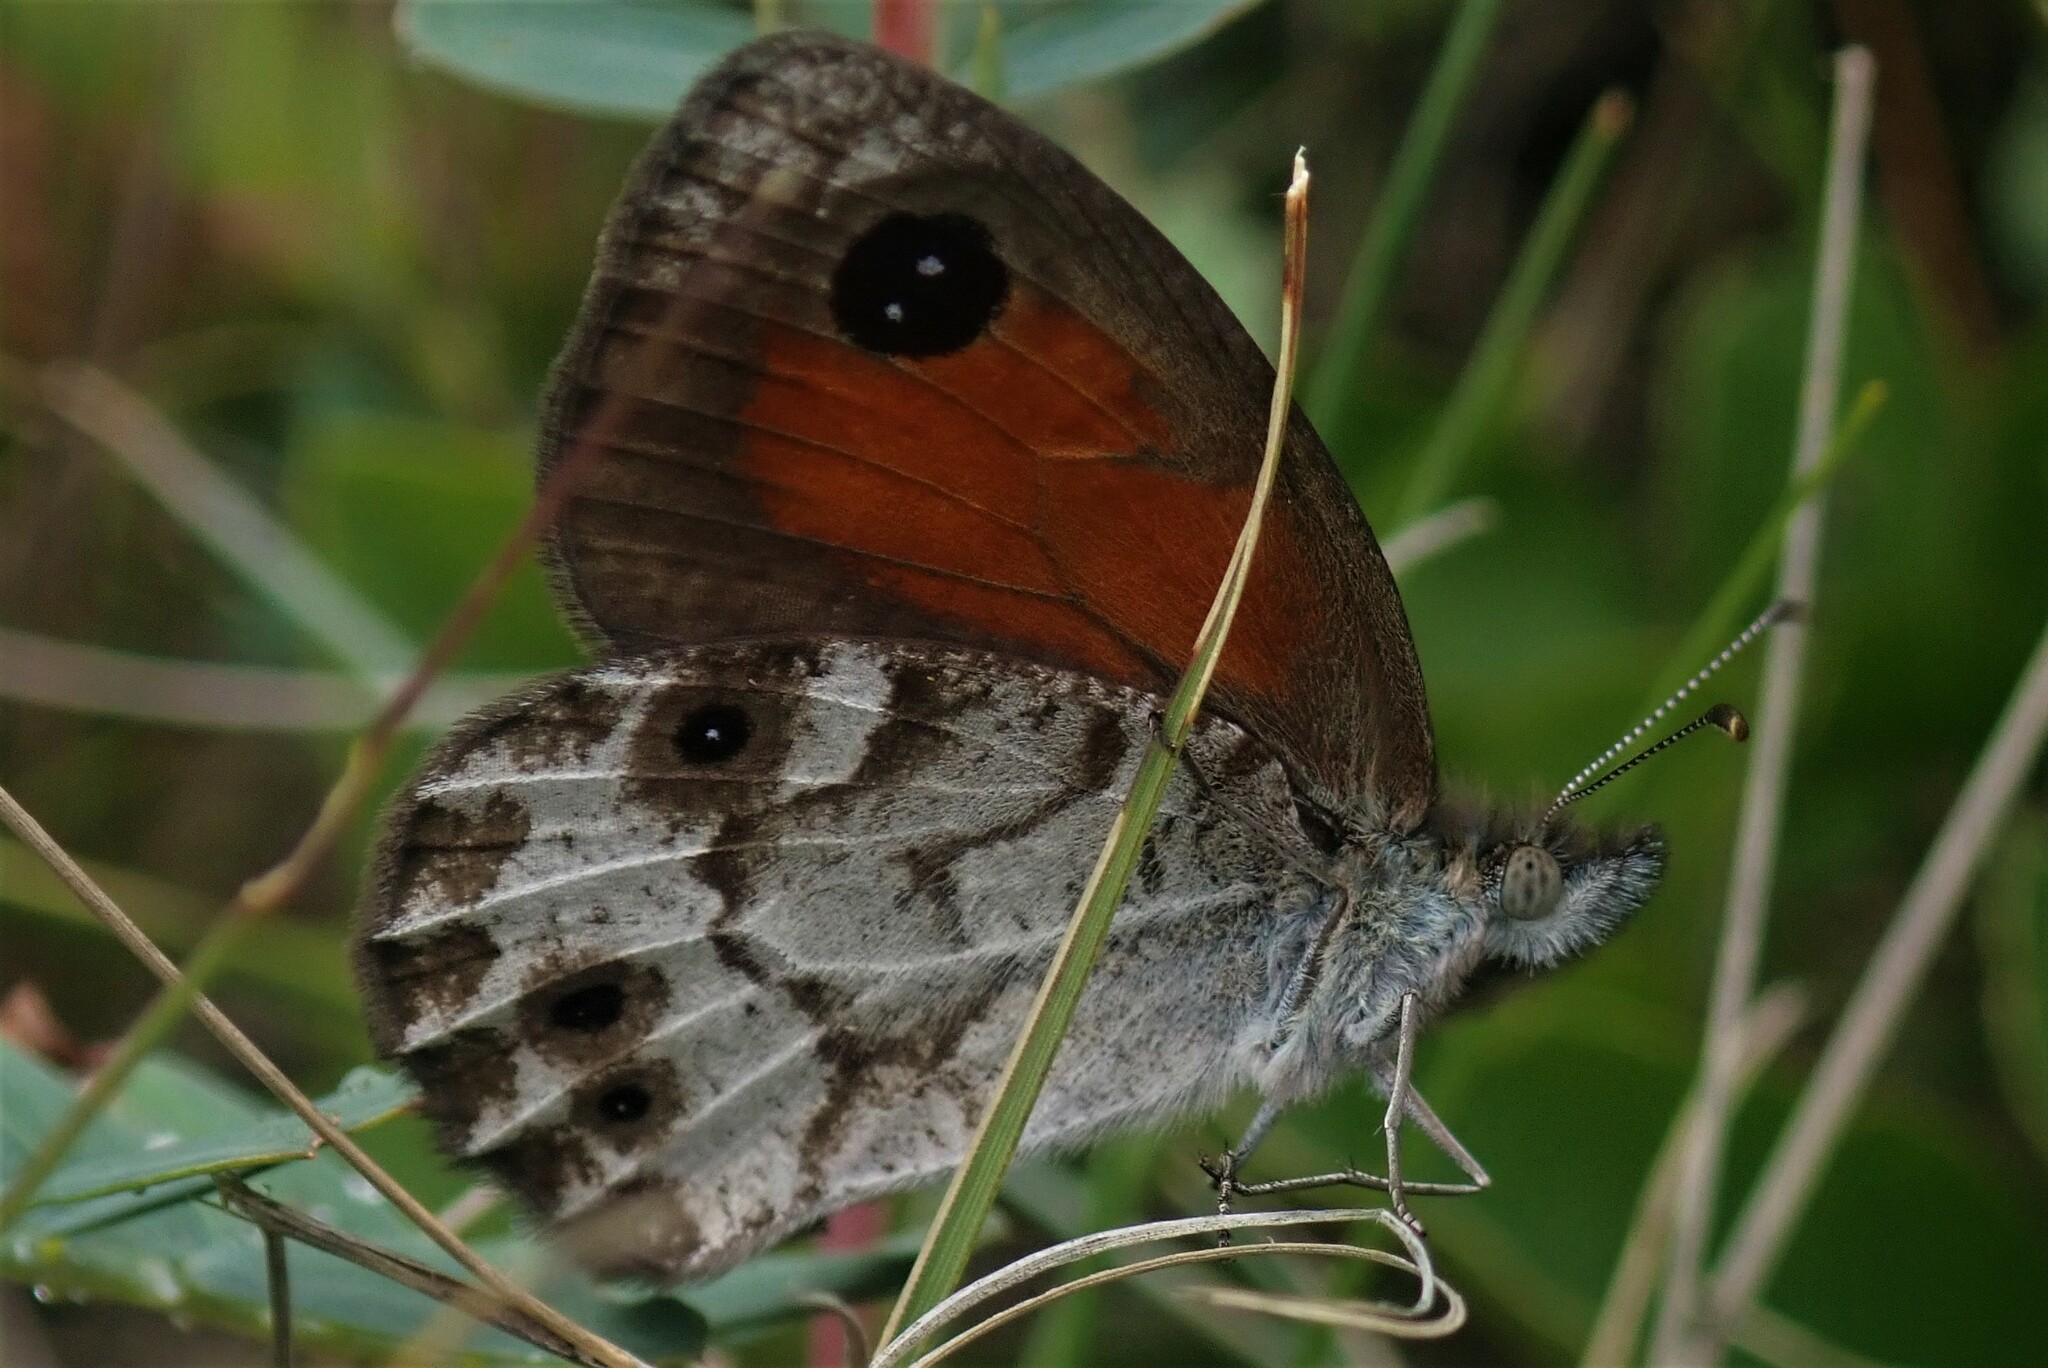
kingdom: Animalia
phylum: Arthropoda
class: Insecta
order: Lepidoptera
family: Nymphalidae
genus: Pseudonympha
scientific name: Pseudonympha magus
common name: Silver-bottom brown
